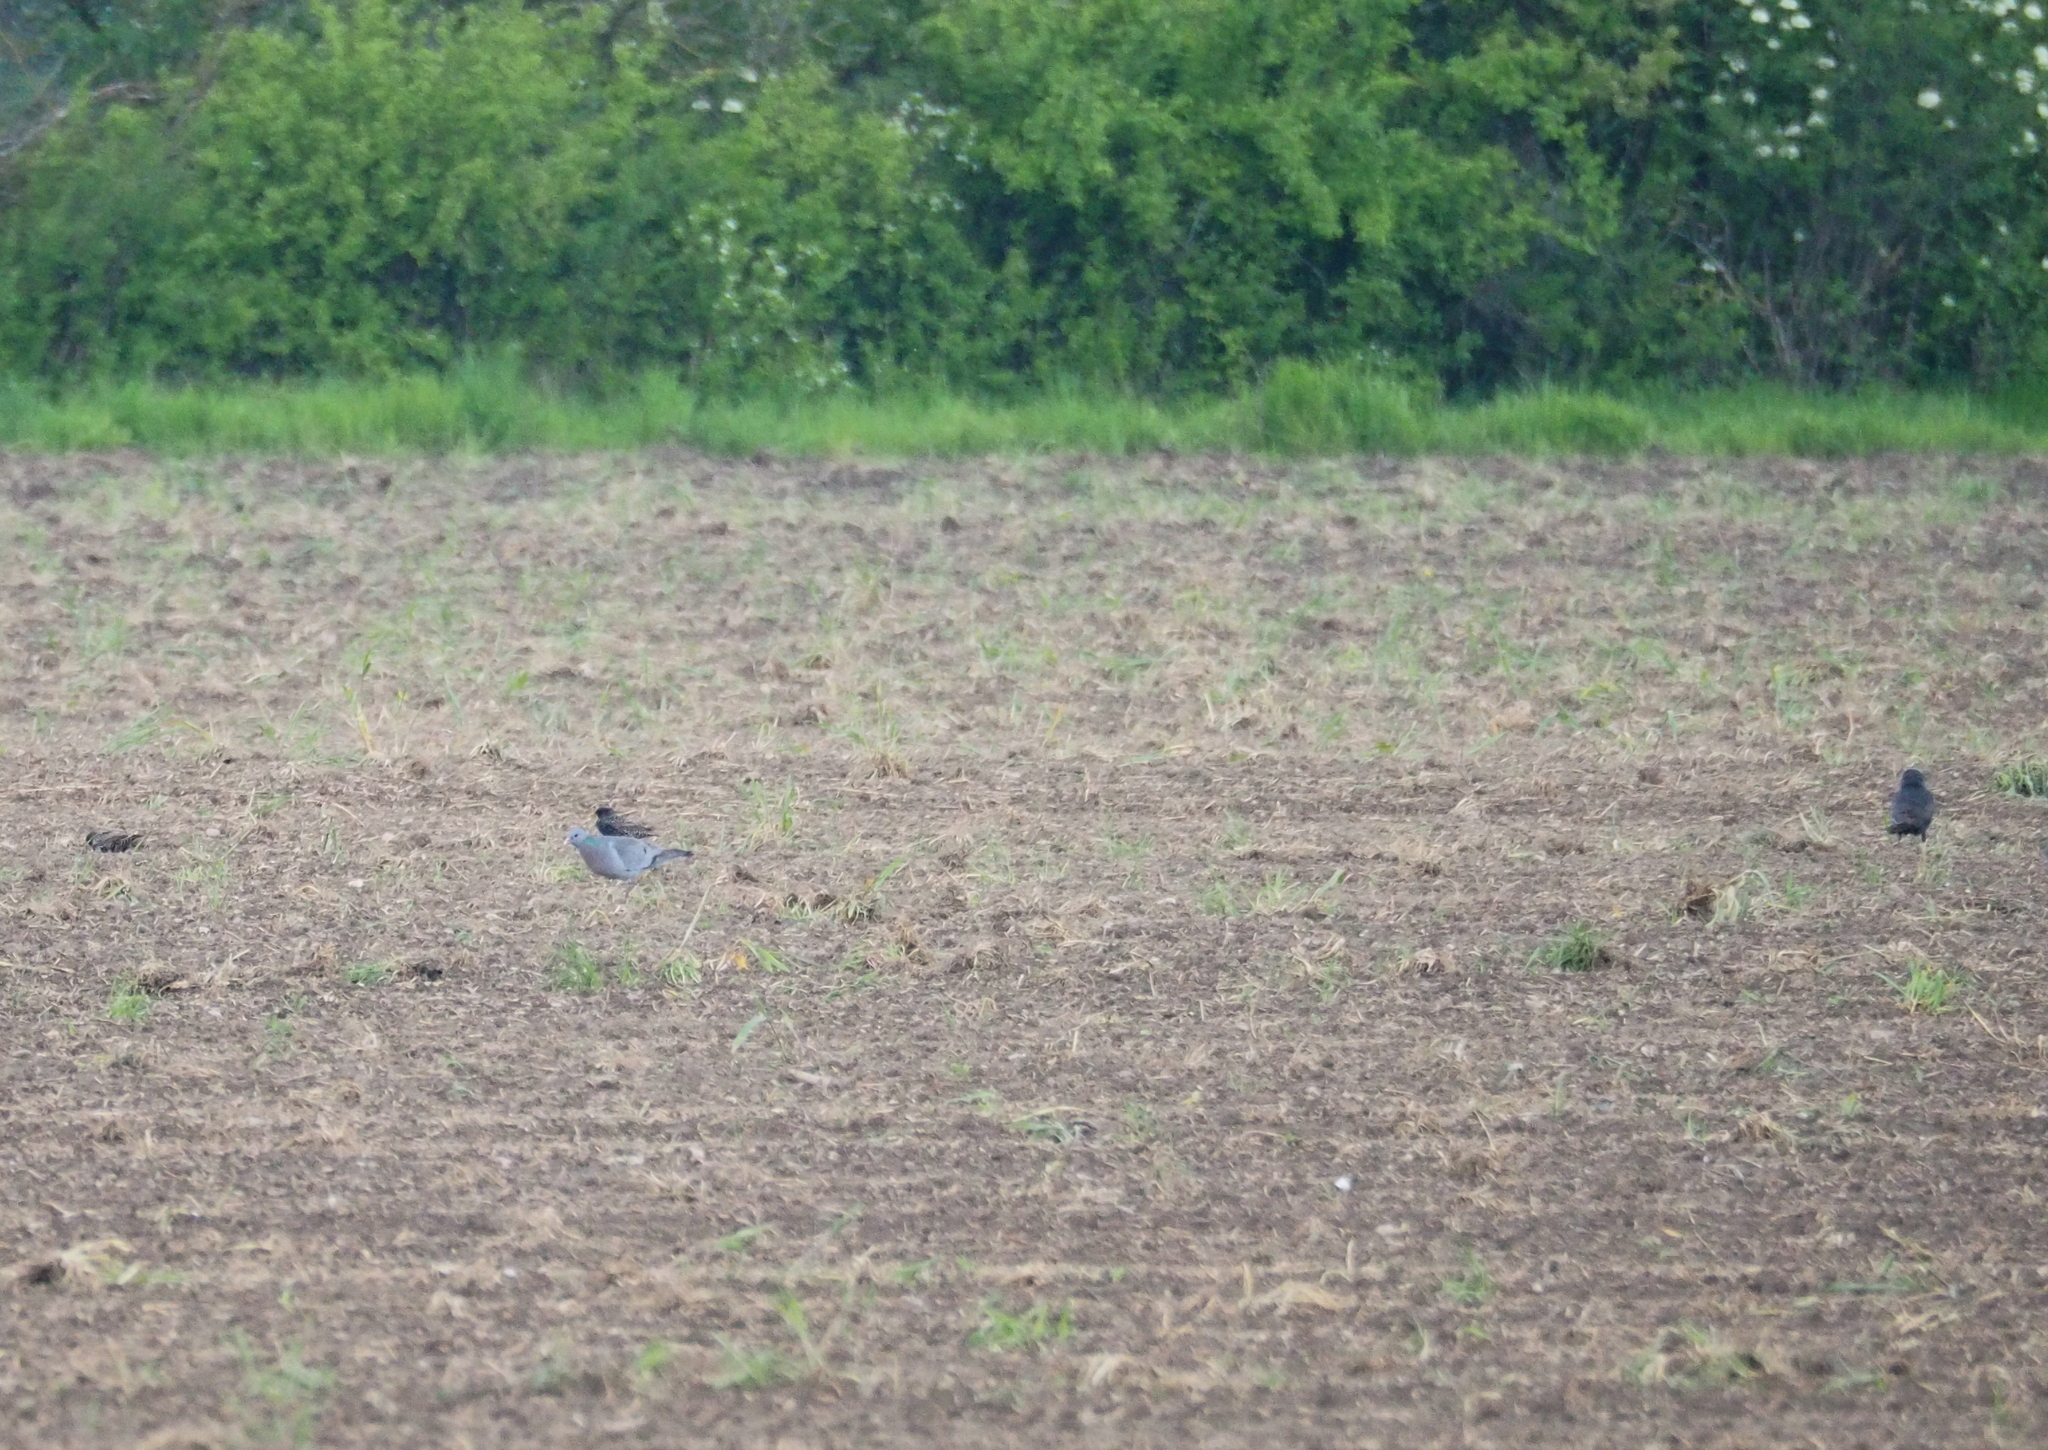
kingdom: Animalia
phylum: Chordata
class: Aves
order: Columbiformes
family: Columbidae
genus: Columba
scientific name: Columba oenas
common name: Stock dove
